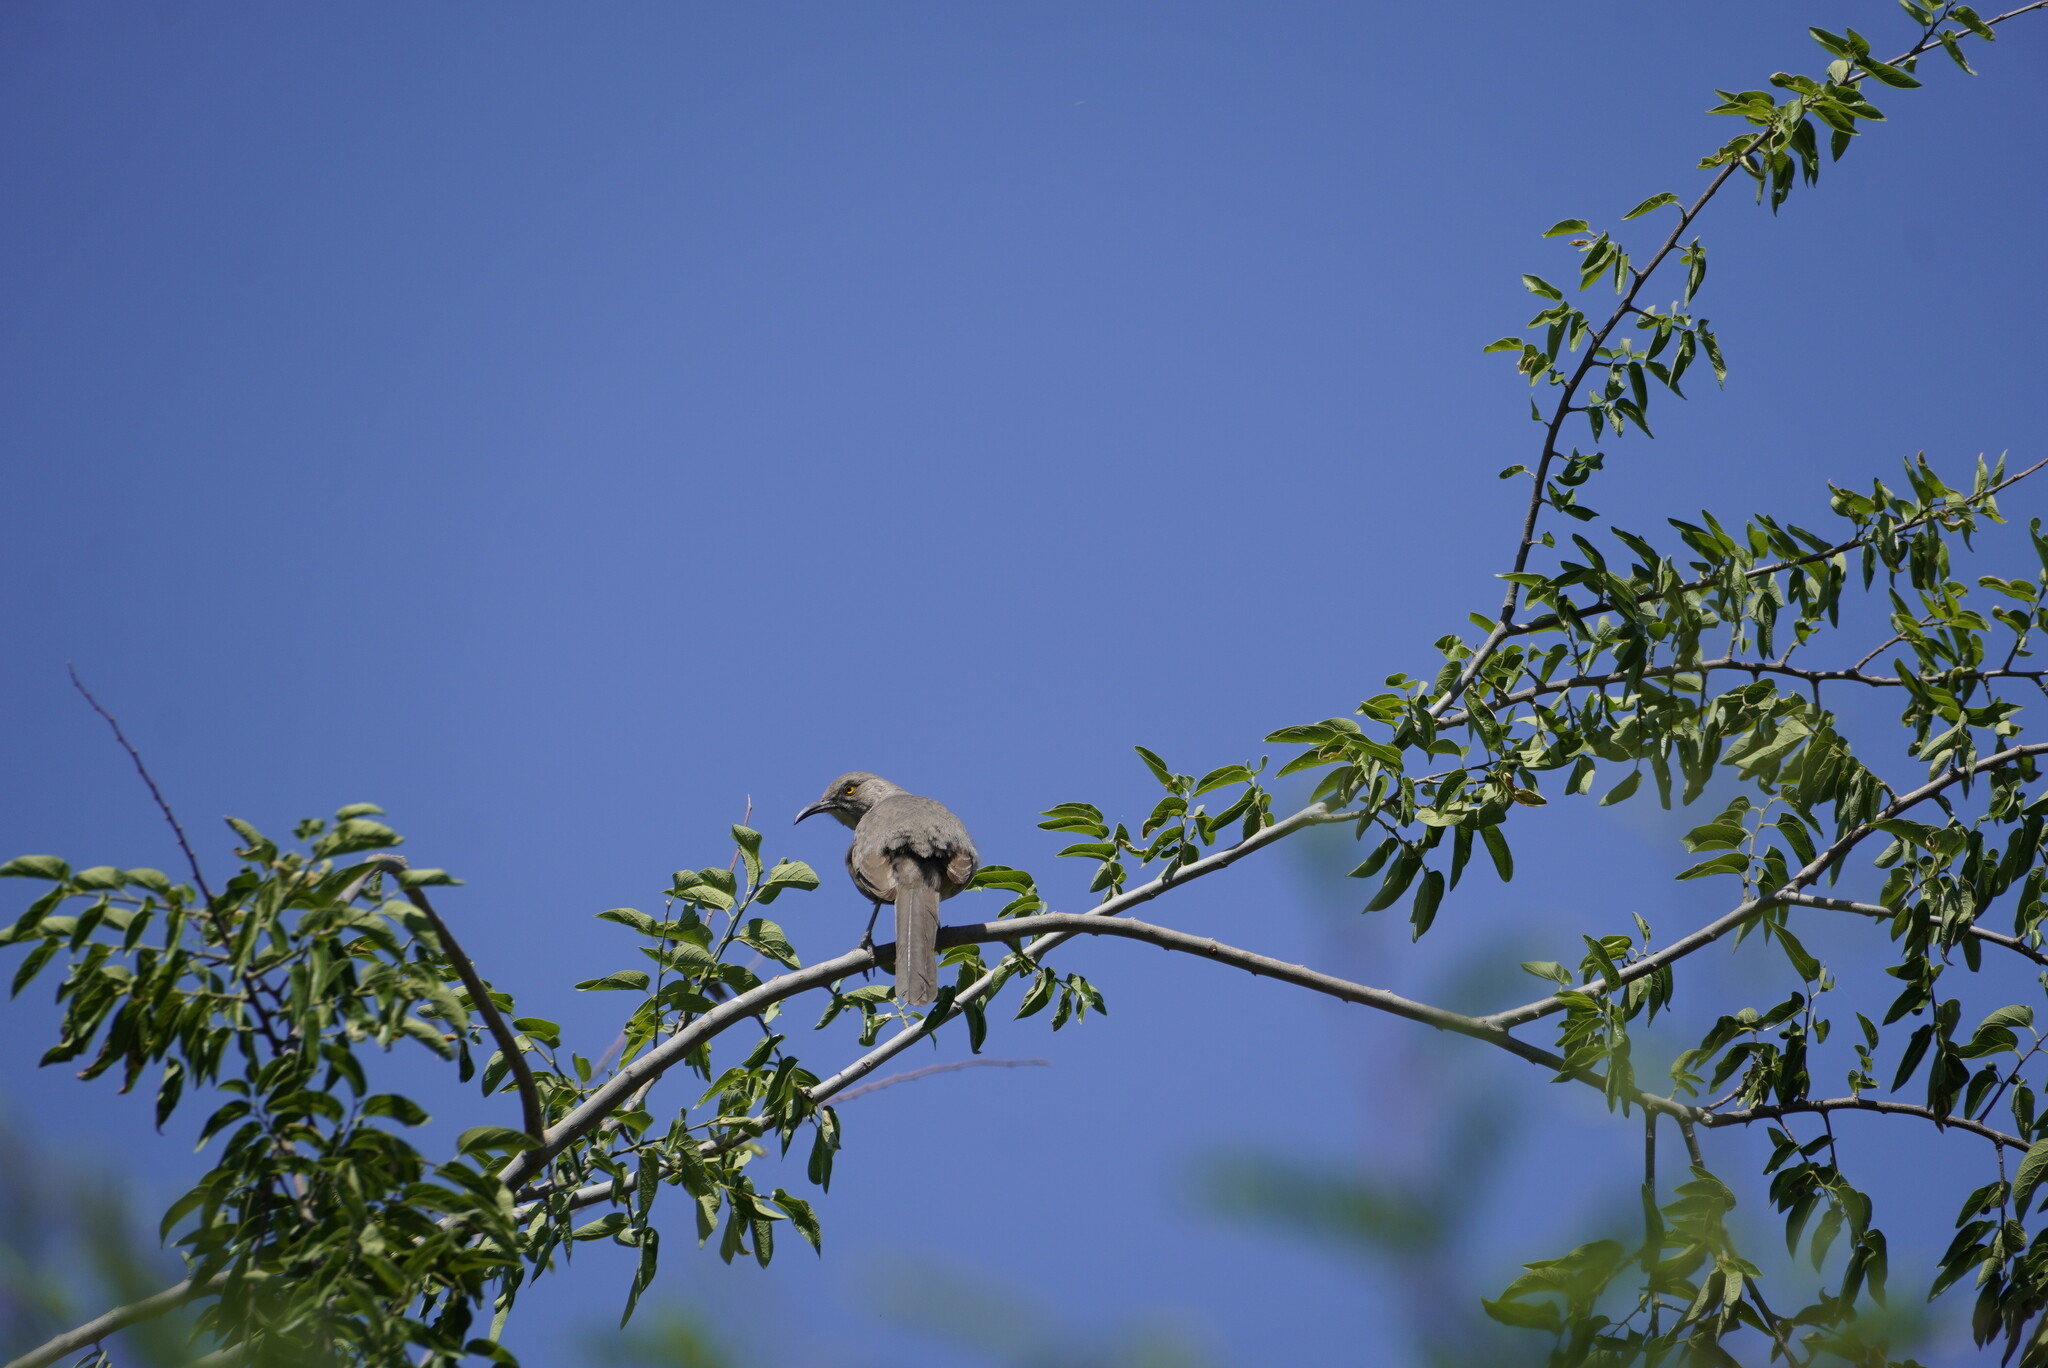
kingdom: Animalia
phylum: Chordata
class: Aves
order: Passeriformes
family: Mimidae
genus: Toxostoma
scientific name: Toxostoma curvirostre
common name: Curve-billed thrasher
